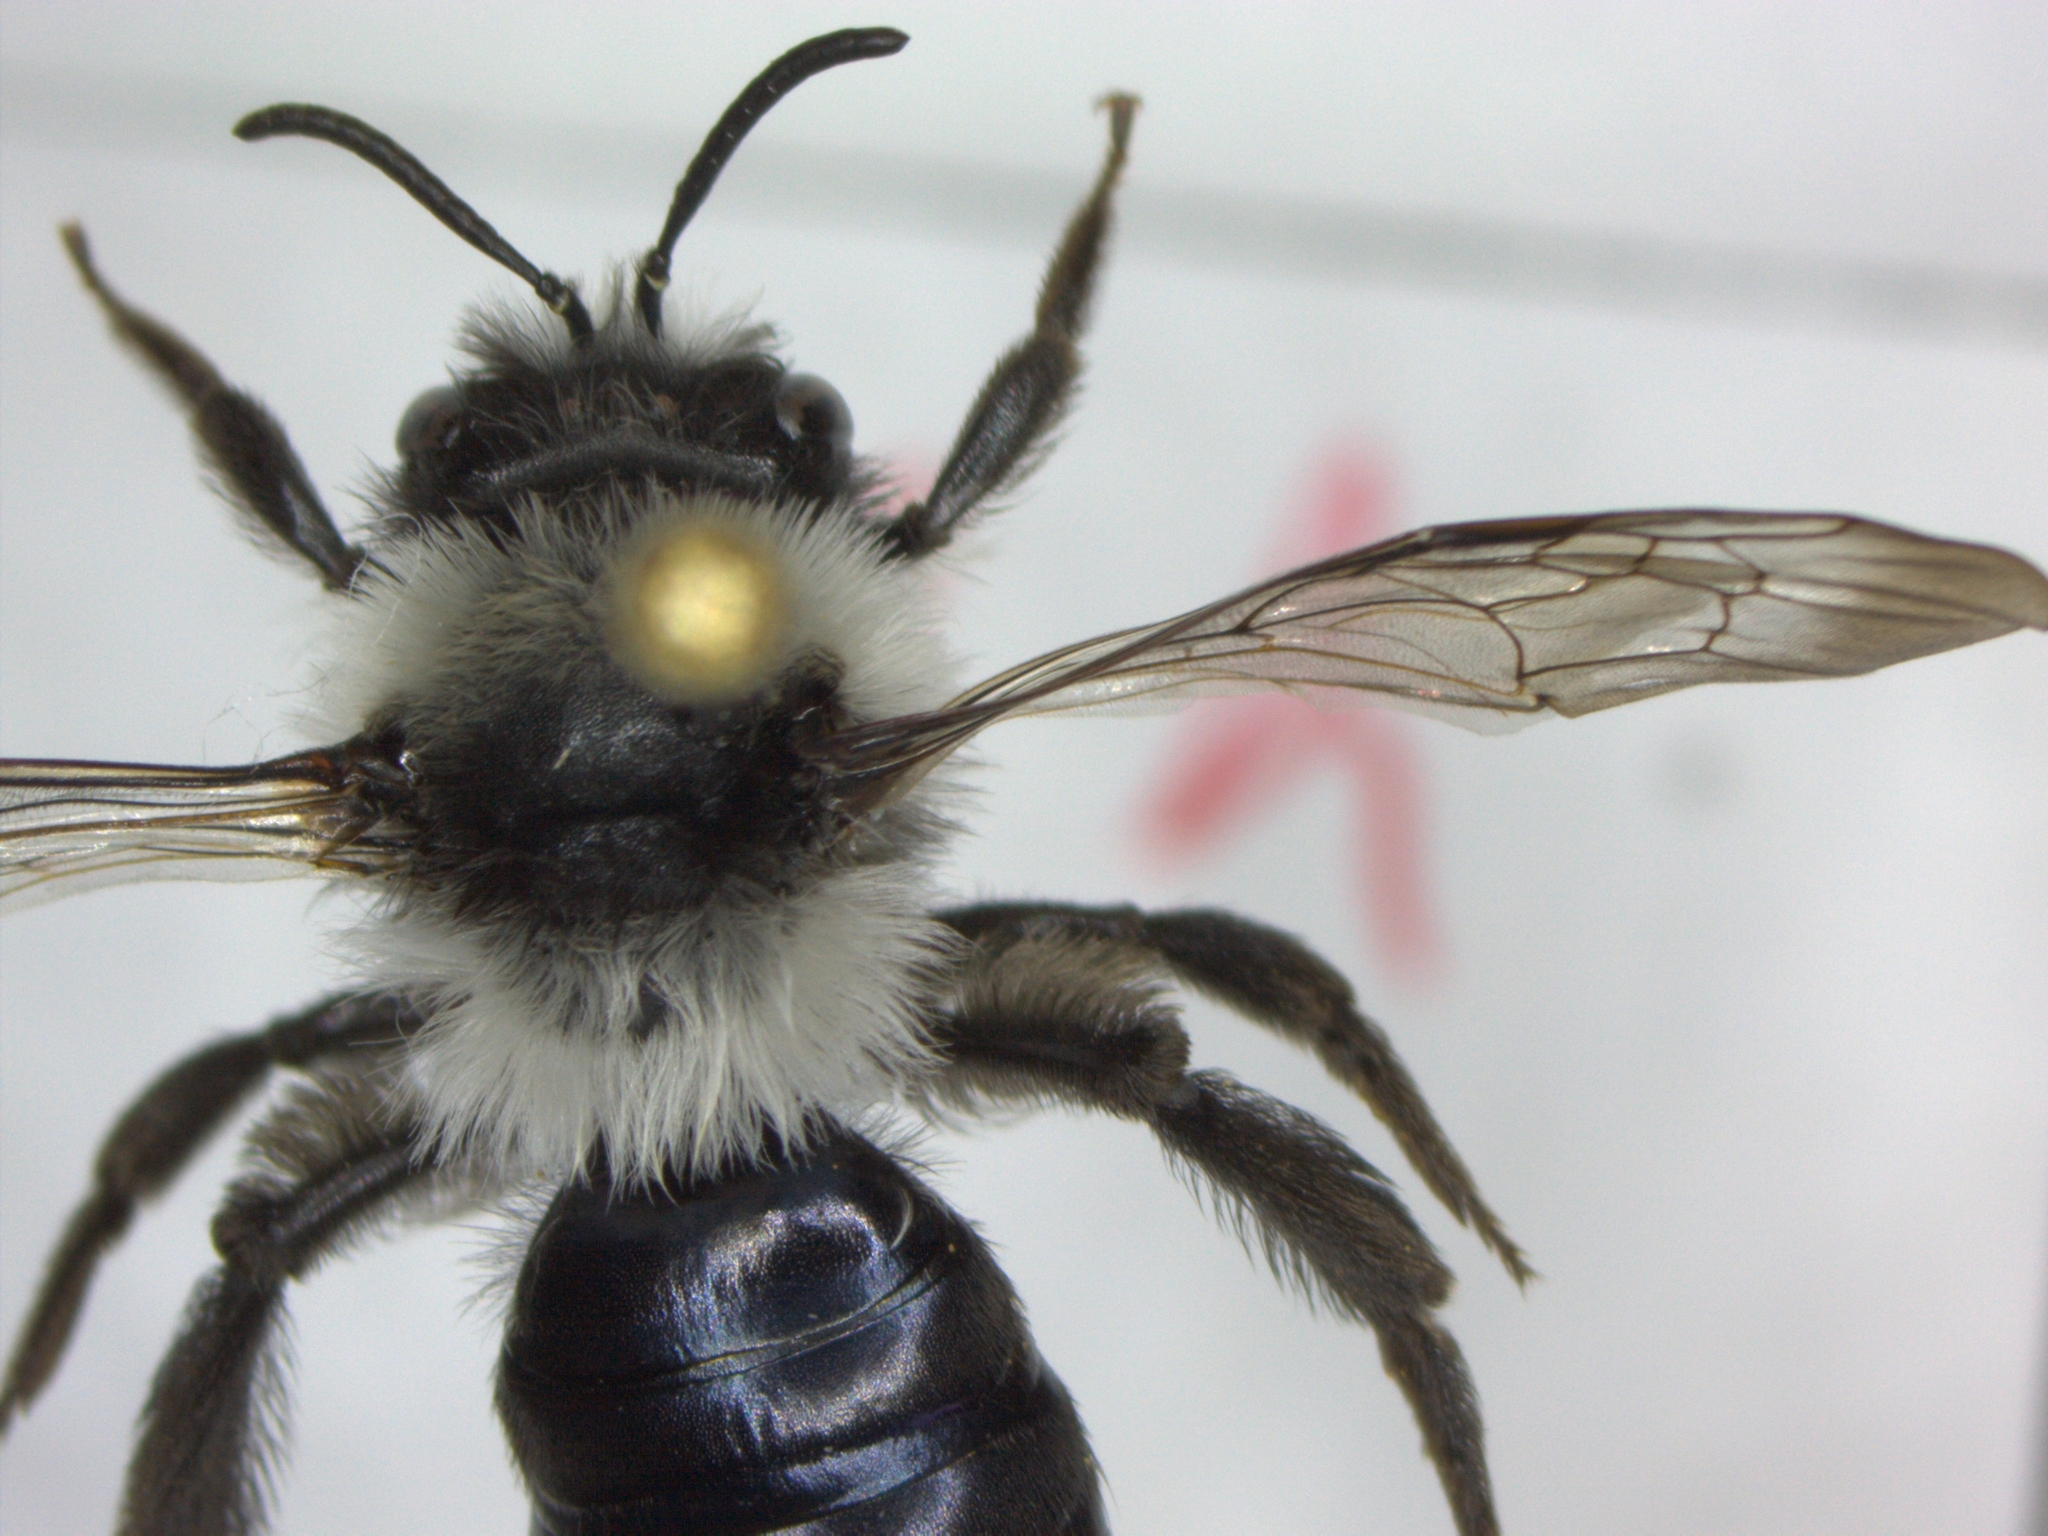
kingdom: Animalia
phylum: Arthropoda
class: Insecta
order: Hymenoptera
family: Andrenidae
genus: Andrena
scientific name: Andrena cineraria
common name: Ashy mining bee
